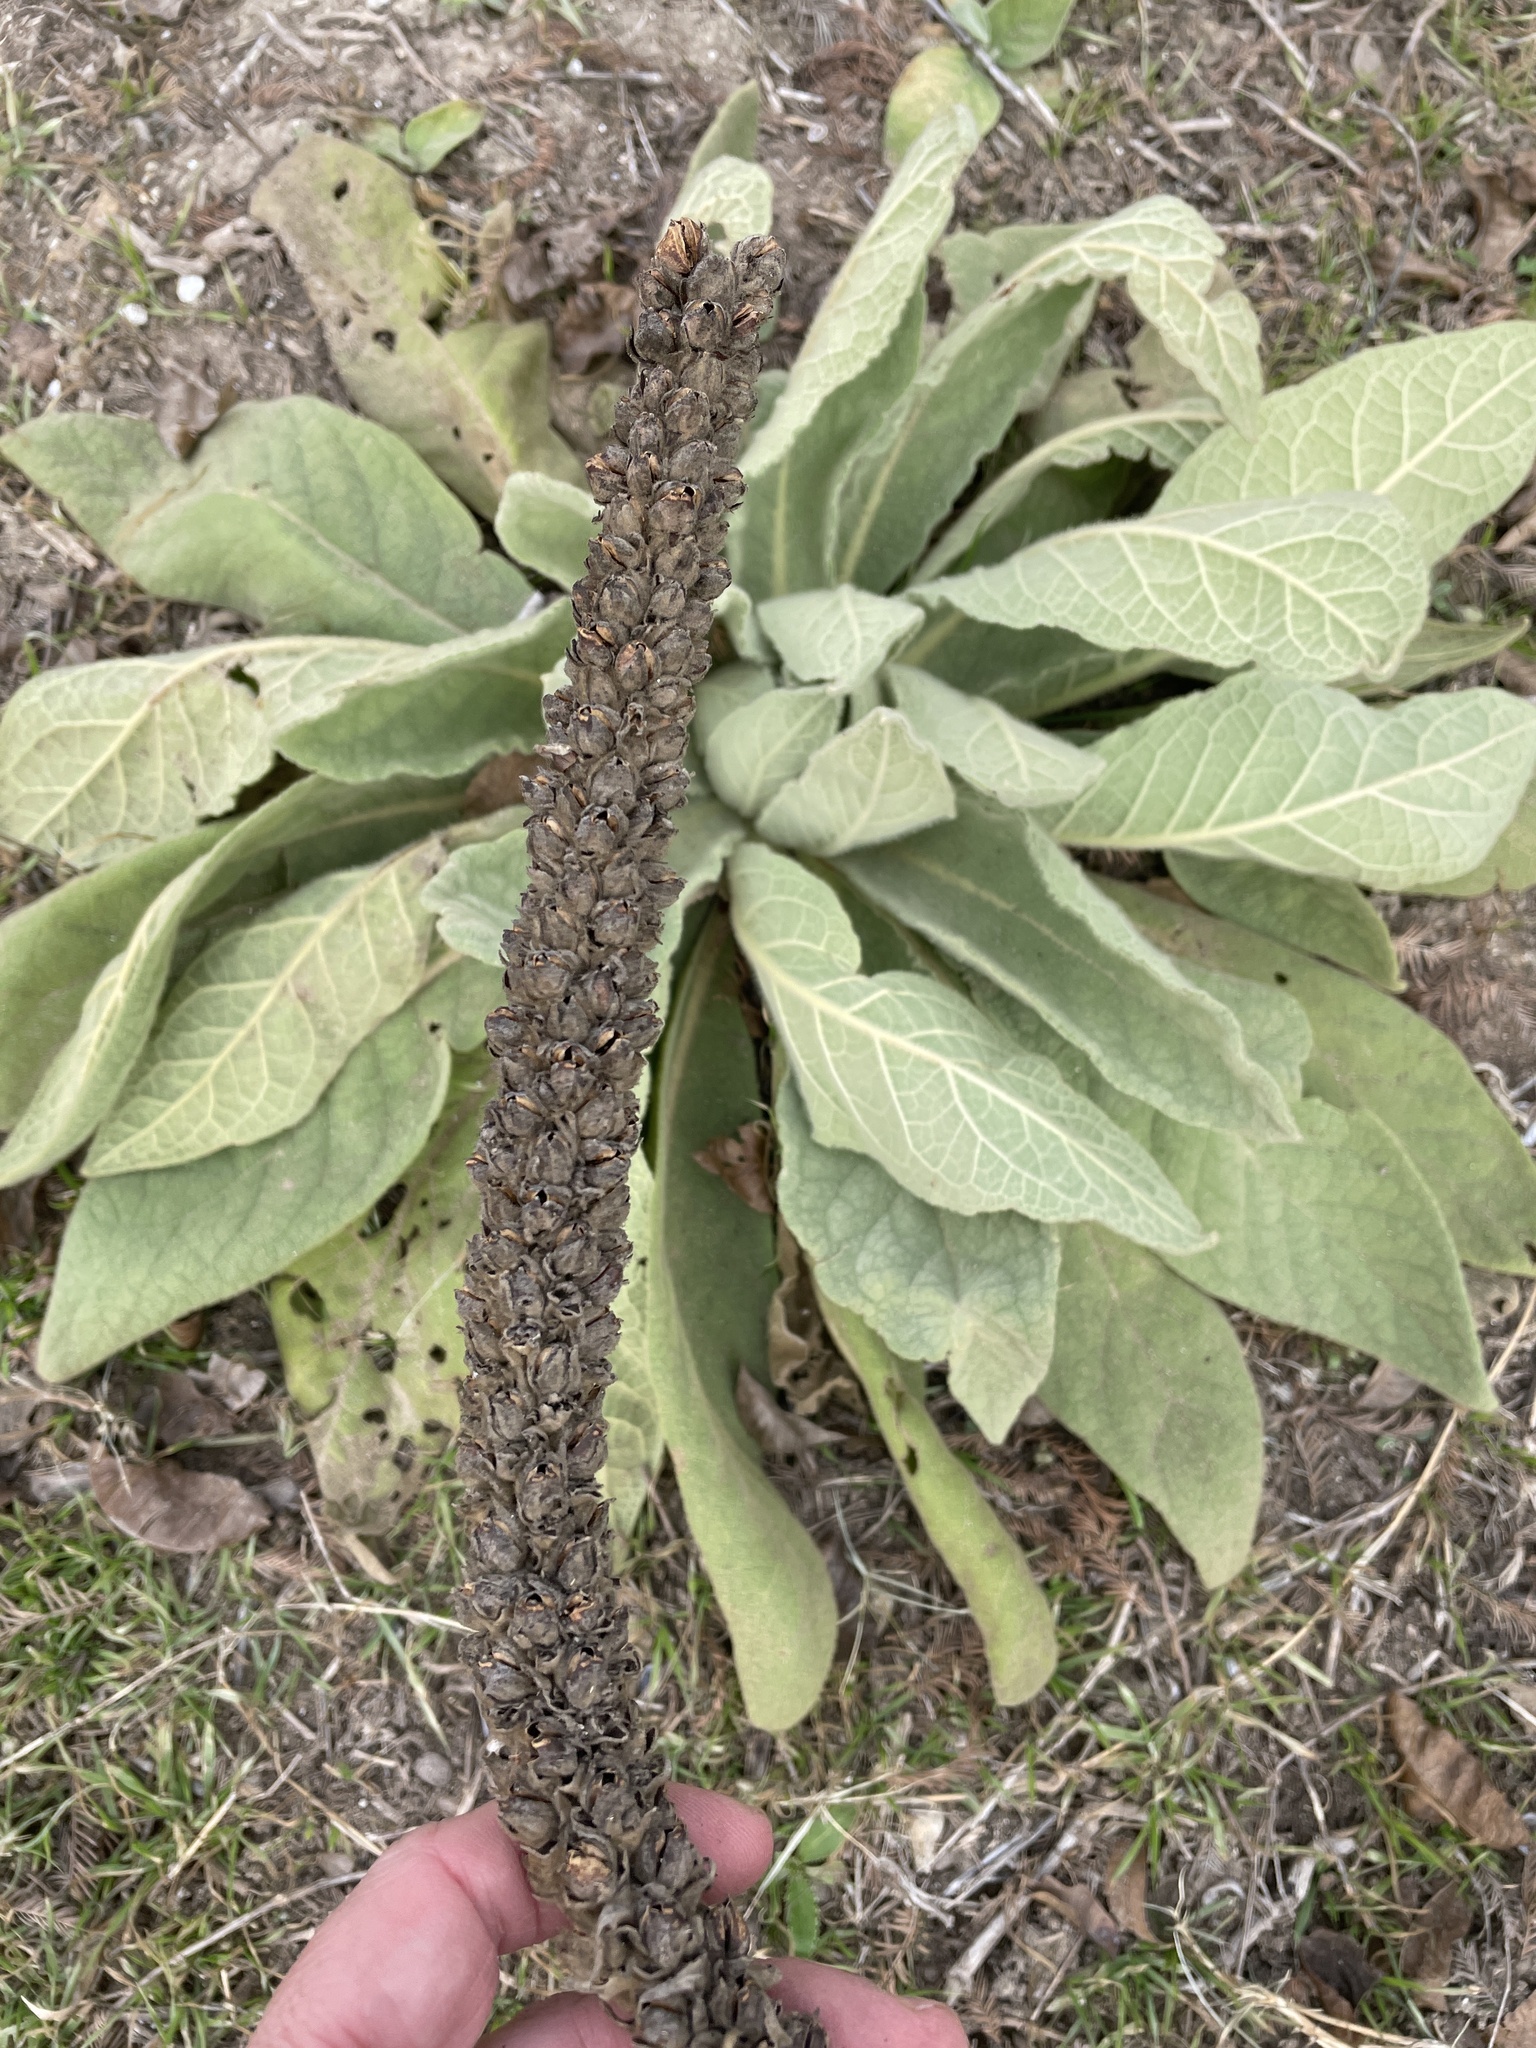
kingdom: Plantae
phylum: Tracheophyta
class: Magnoliopsida
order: Lamiales
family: Scrophulariaceae
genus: Verbascum
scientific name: Verbascum thapsus
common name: Common mullein
